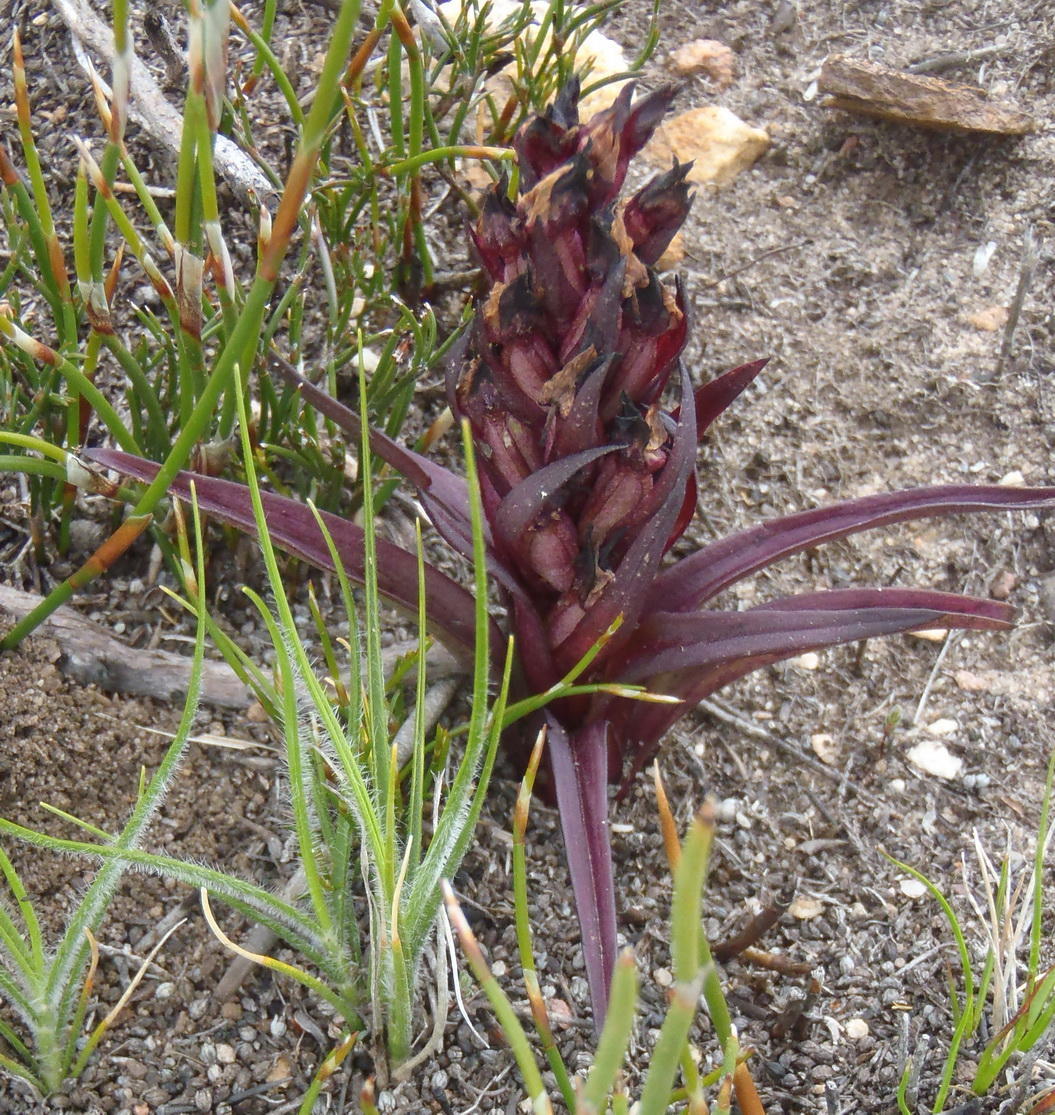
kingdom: Plantae
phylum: Tracheophyta
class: Liliopsida
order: Asparagales
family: Orchidaceae
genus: Disa
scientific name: Disa linderiana
